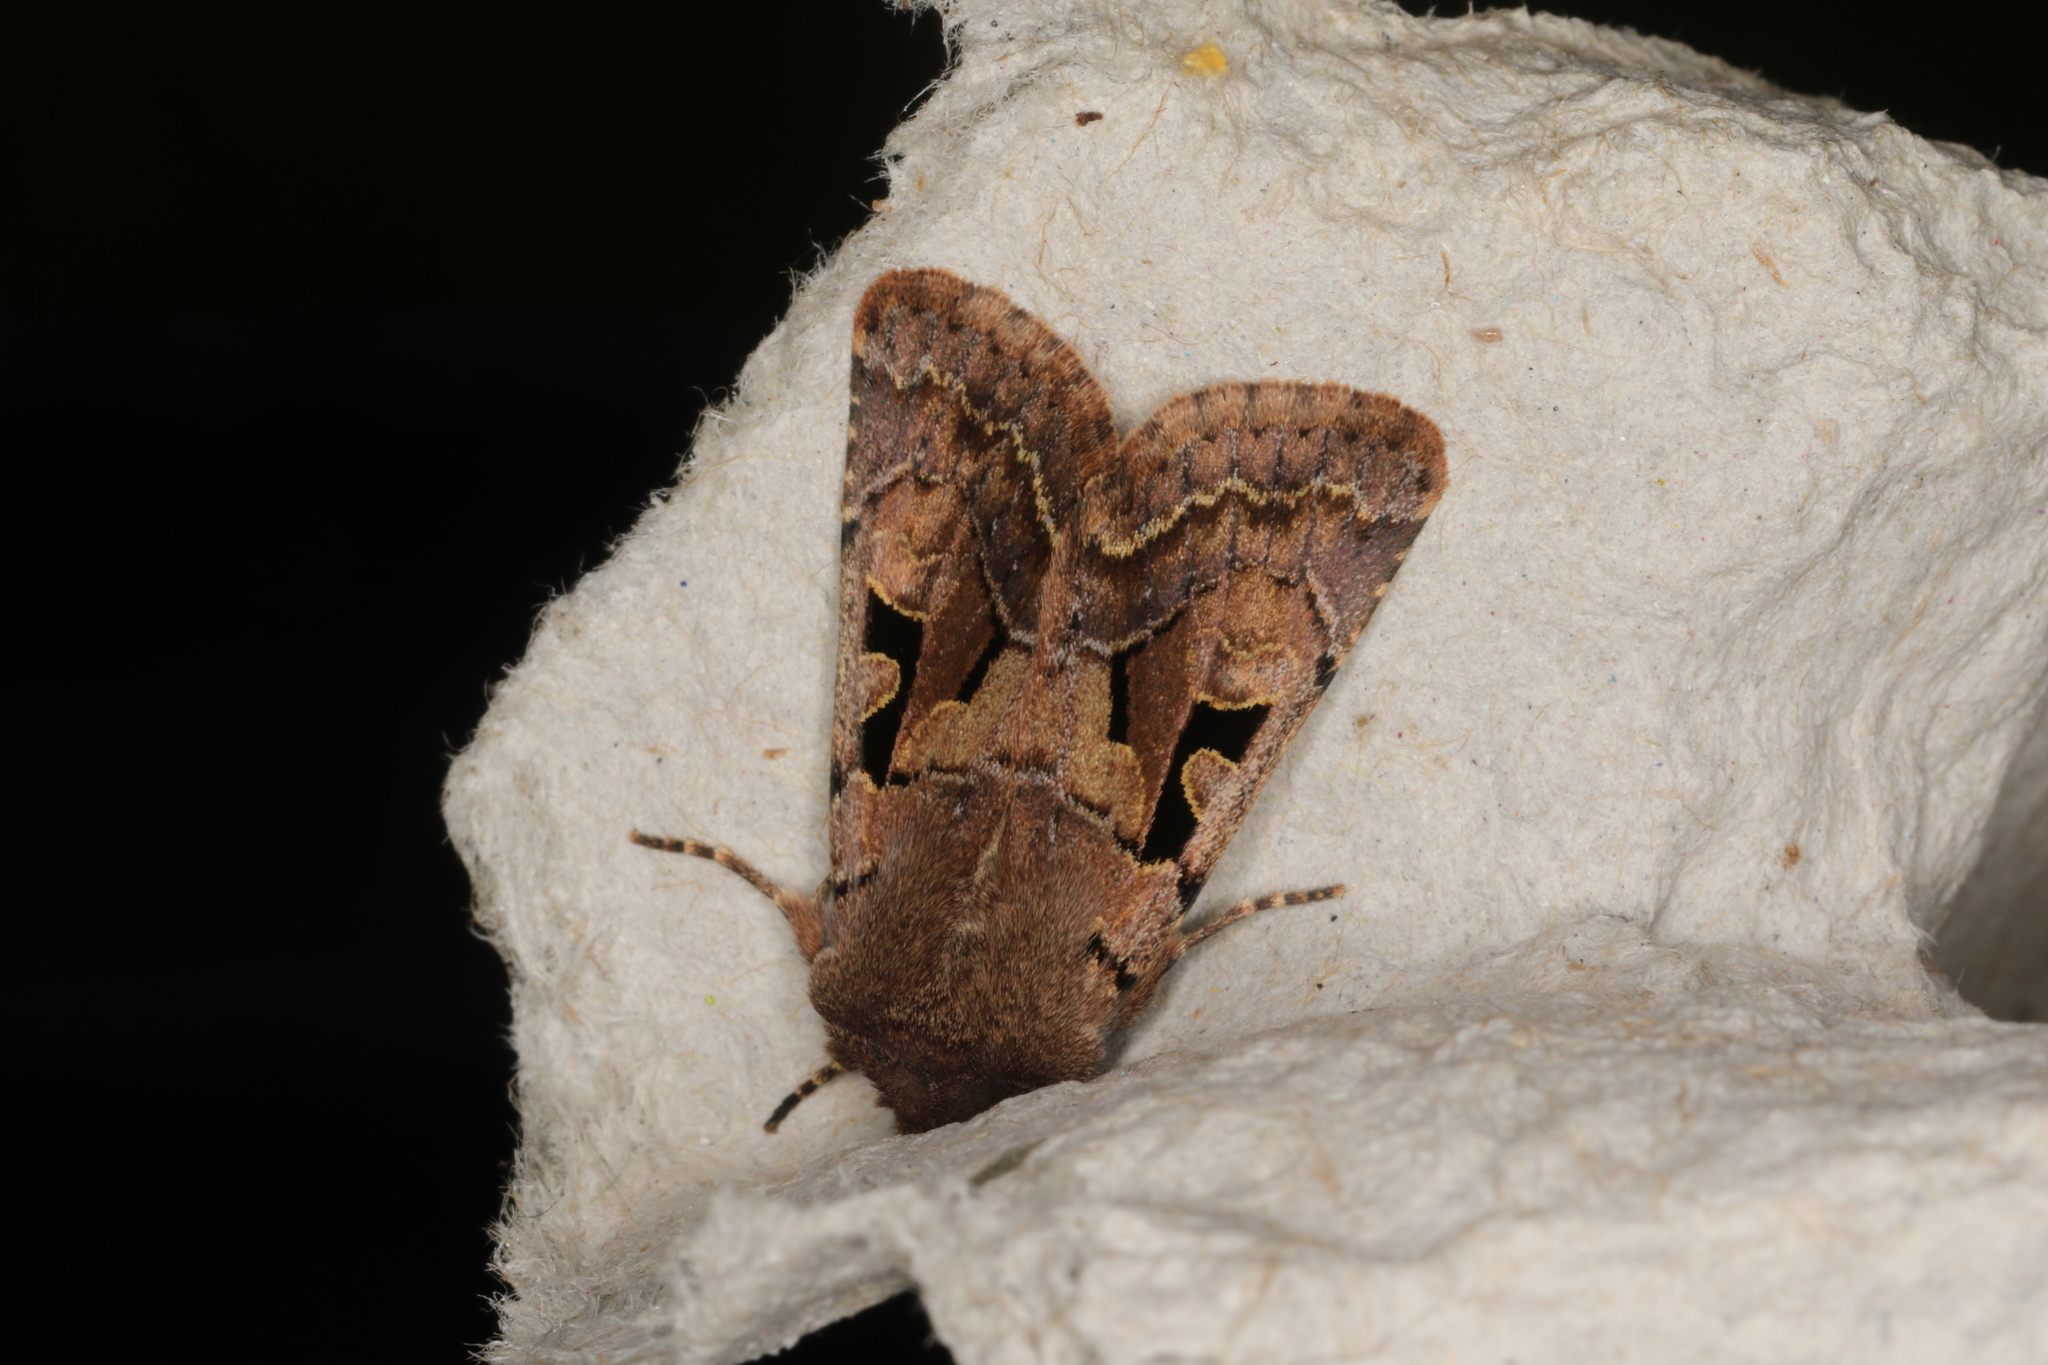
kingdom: Animalia
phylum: Arthropoda
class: Insecta
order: Lepidoptera
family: Noctuidae
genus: Orthosia
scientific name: Orthosia gothica
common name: Hebrew character
